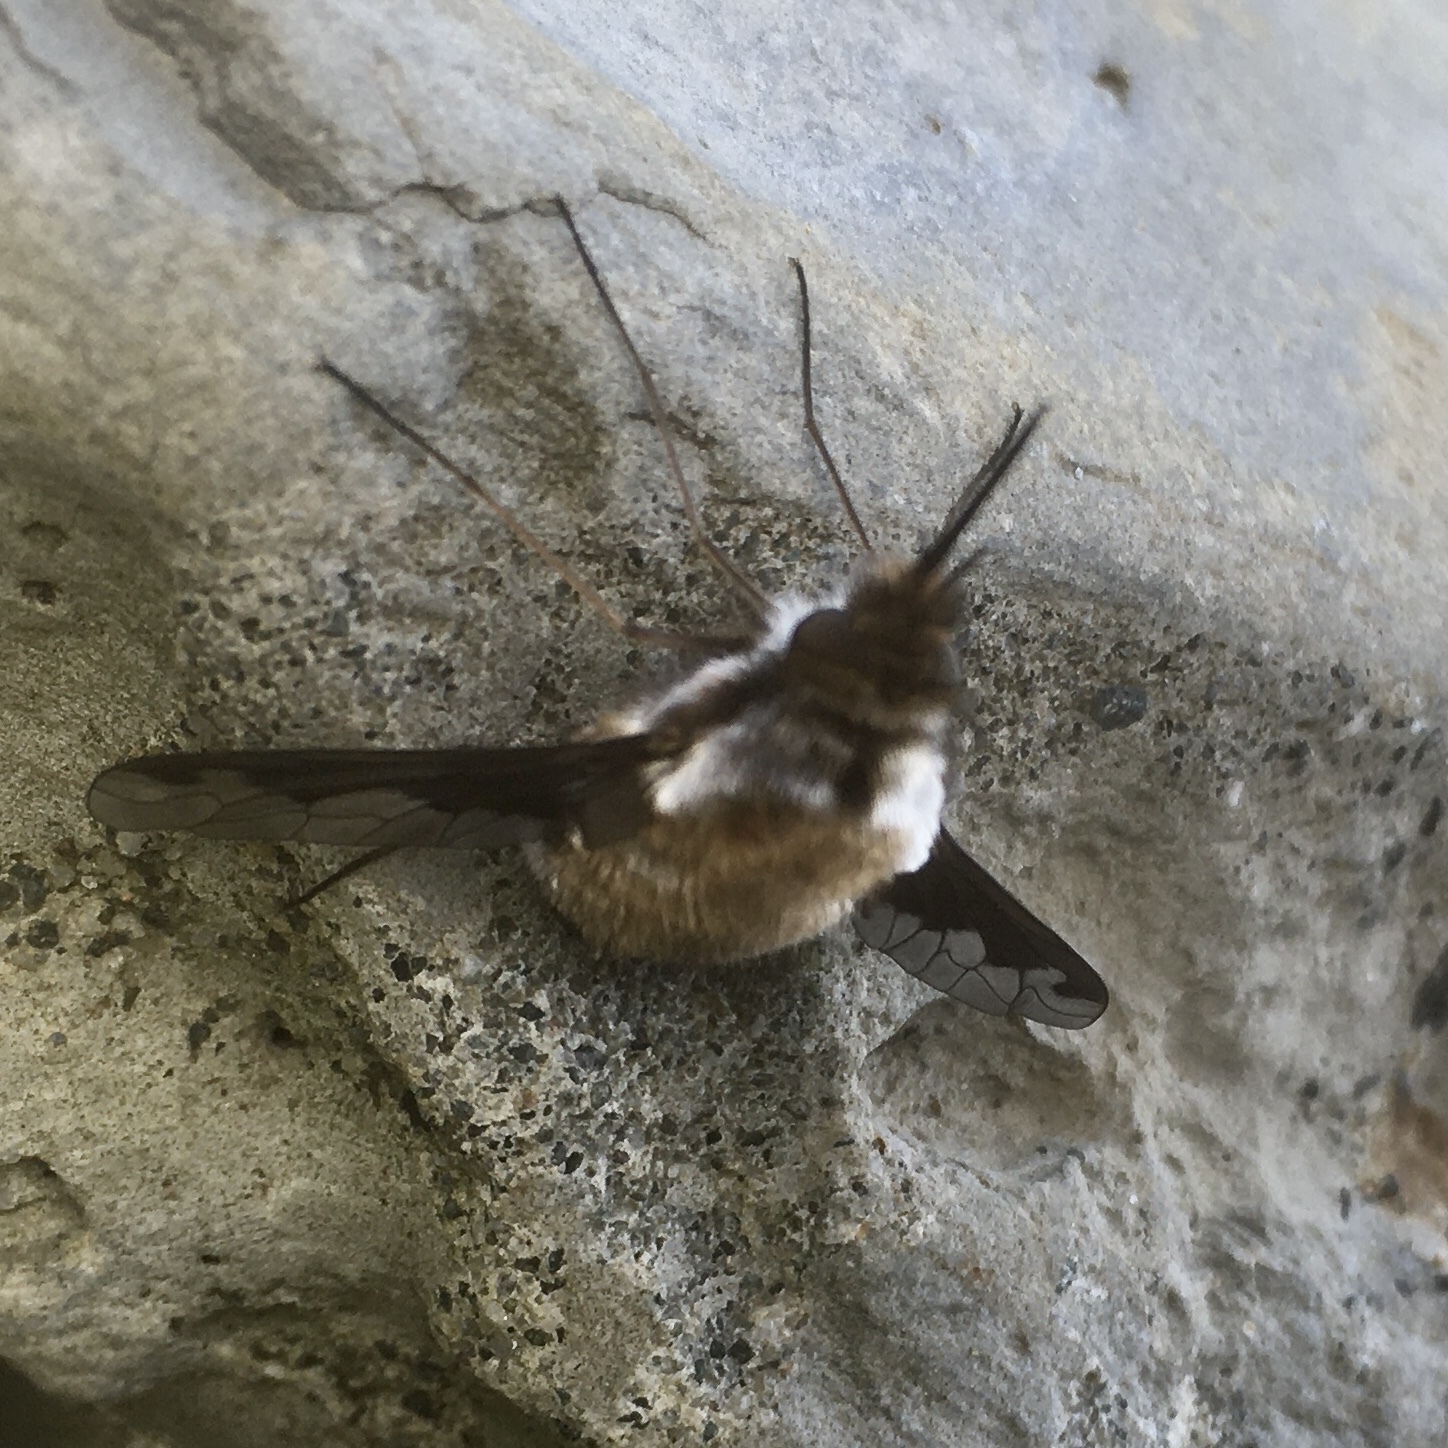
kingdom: Animalia
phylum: Arthropoda
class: Insecta
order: Diptera
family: Bombyliidae
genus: Bombylius
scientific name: Bombylius major
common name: Bee fly
